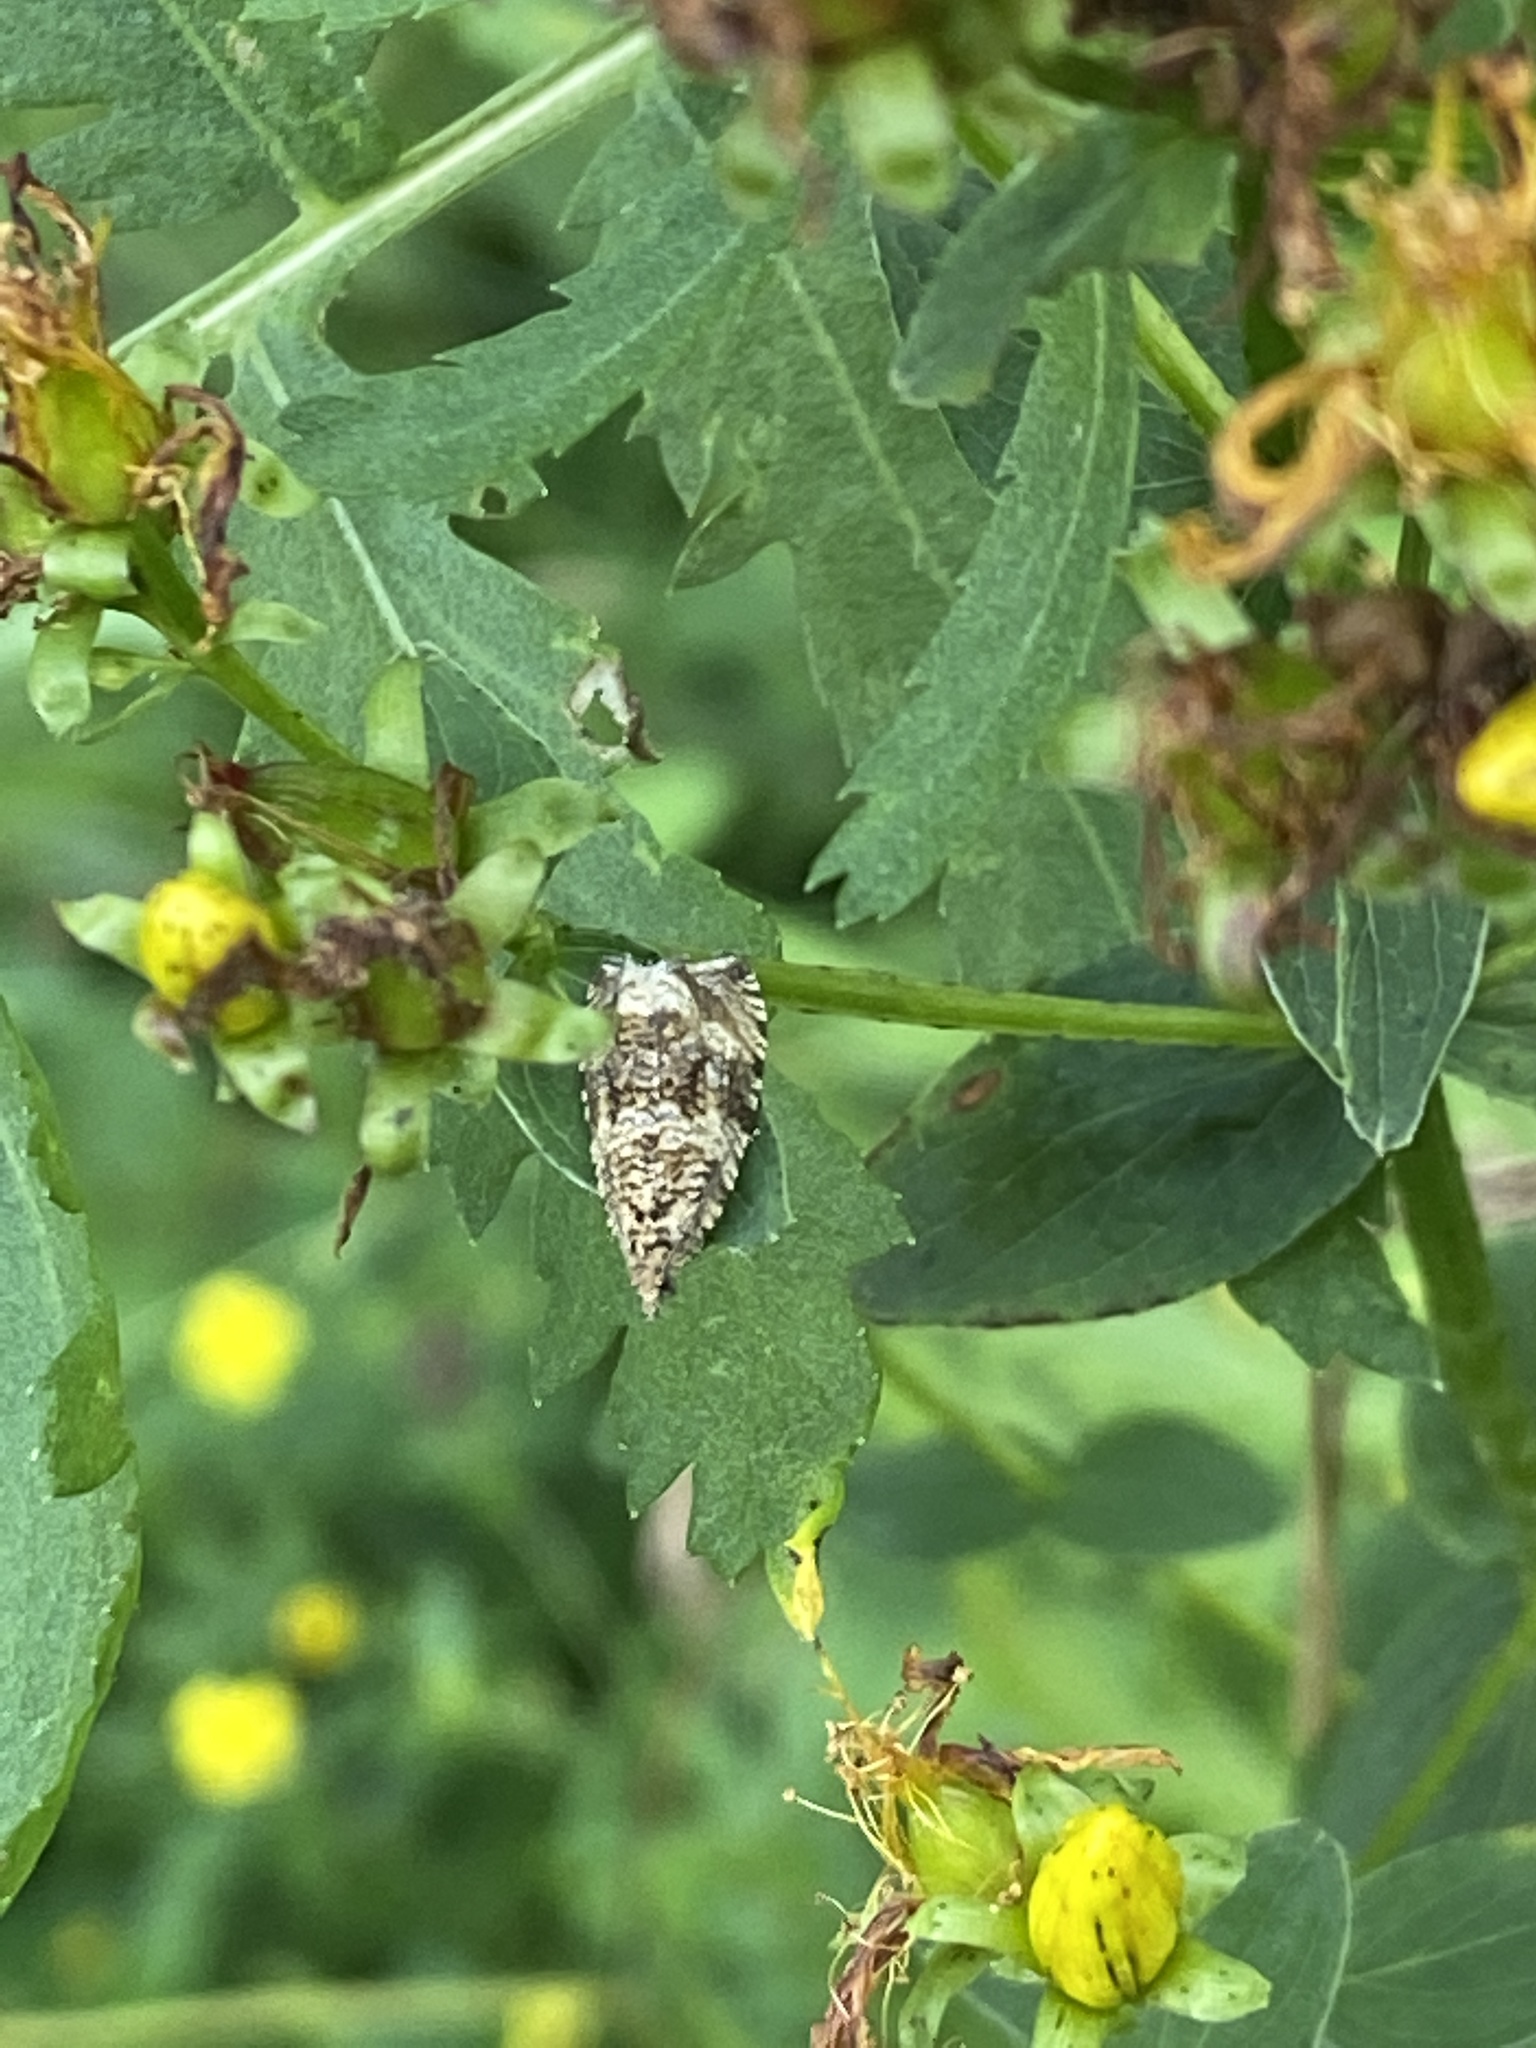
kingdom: Animalia
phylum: Arthropoda
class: Insecta
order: Lepidoptera
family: Tortricidae
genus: Syricoris
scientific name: Syricoris lacunana
